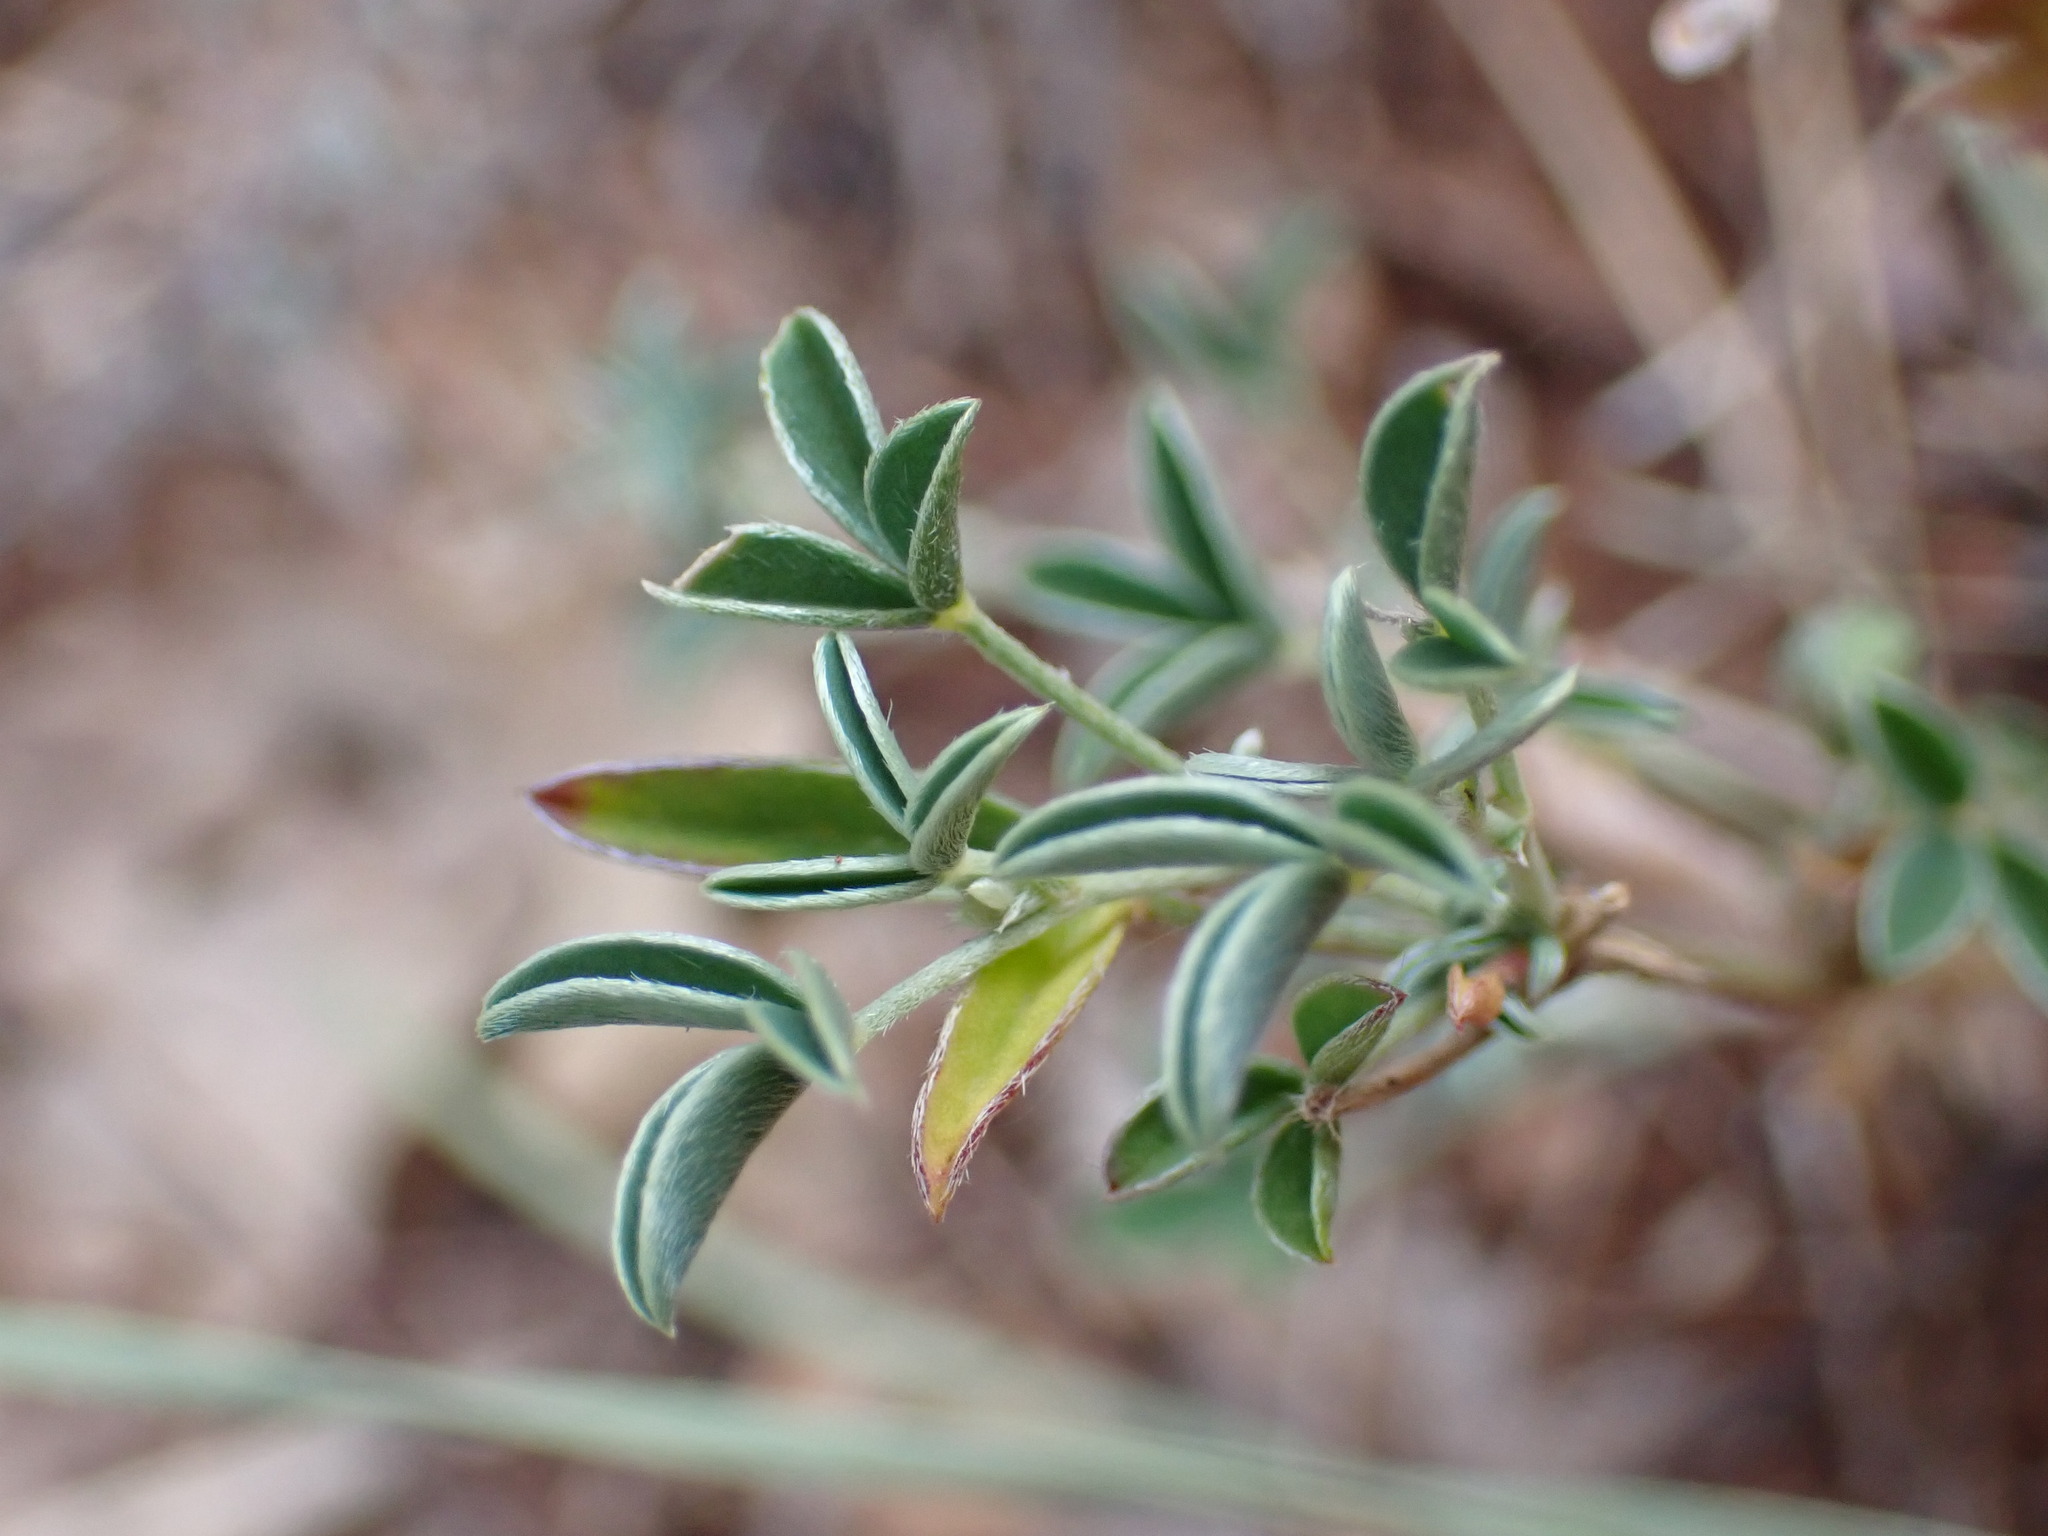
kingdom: Plantae
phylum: Tracheophyta
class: Magnoliopsida
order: Fabales
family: Fabaceae
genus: Argyrolobium
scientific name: Argyrolobium zanonii
